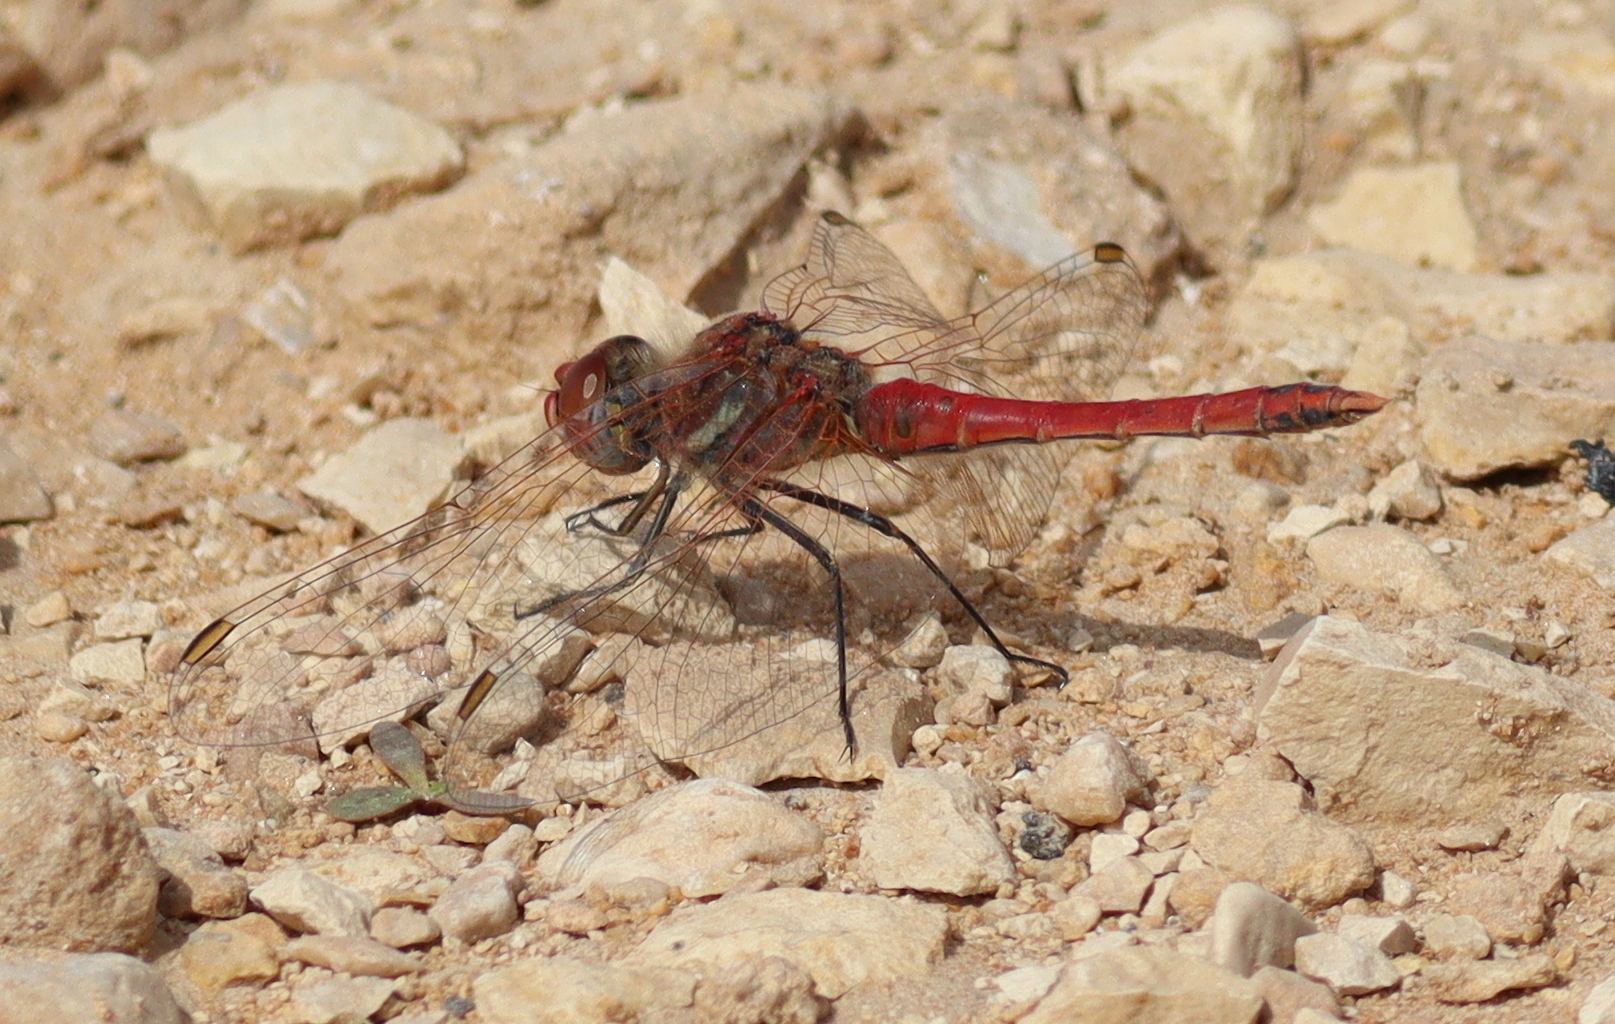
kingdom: Animalia
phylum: Arthropoda
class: Insecta
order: Odonata
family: Libellulidae
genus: Sympetrum
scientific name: Sympetrum fonscolombii
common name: Red-veined darter
